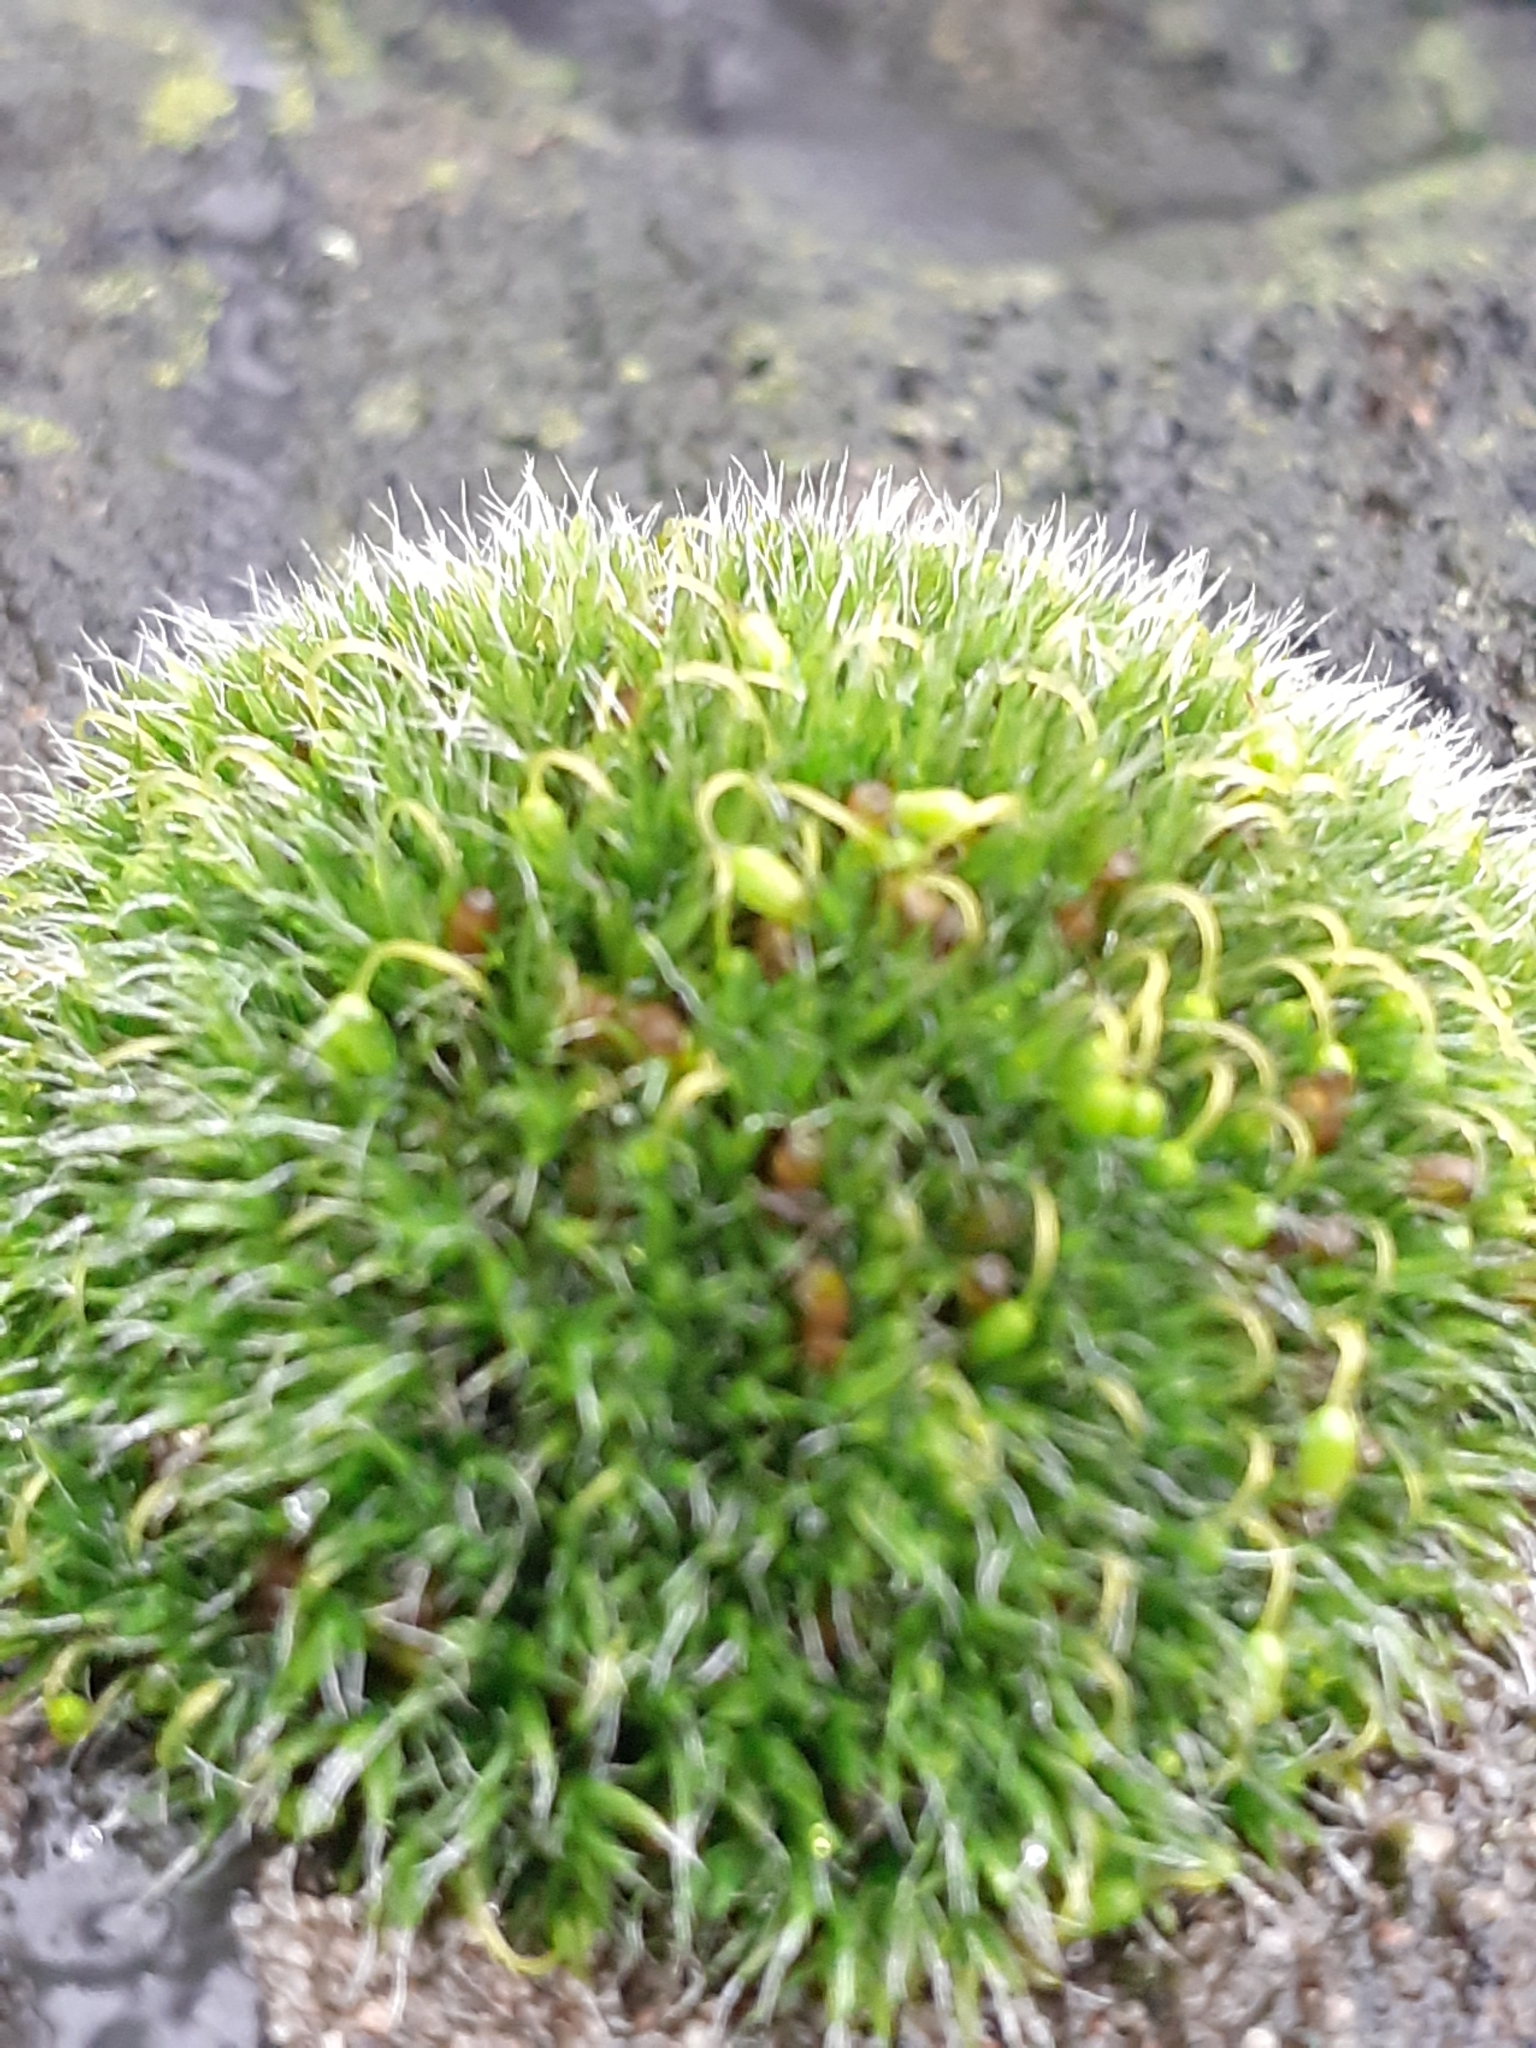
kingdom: Plantae
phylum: Bryophyta
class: Bryopsida
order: Grimmiales
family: Grimmiaceae
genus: Grimmia
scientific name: Grimmia pulvinata
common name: Grey-cushioned grimmia
